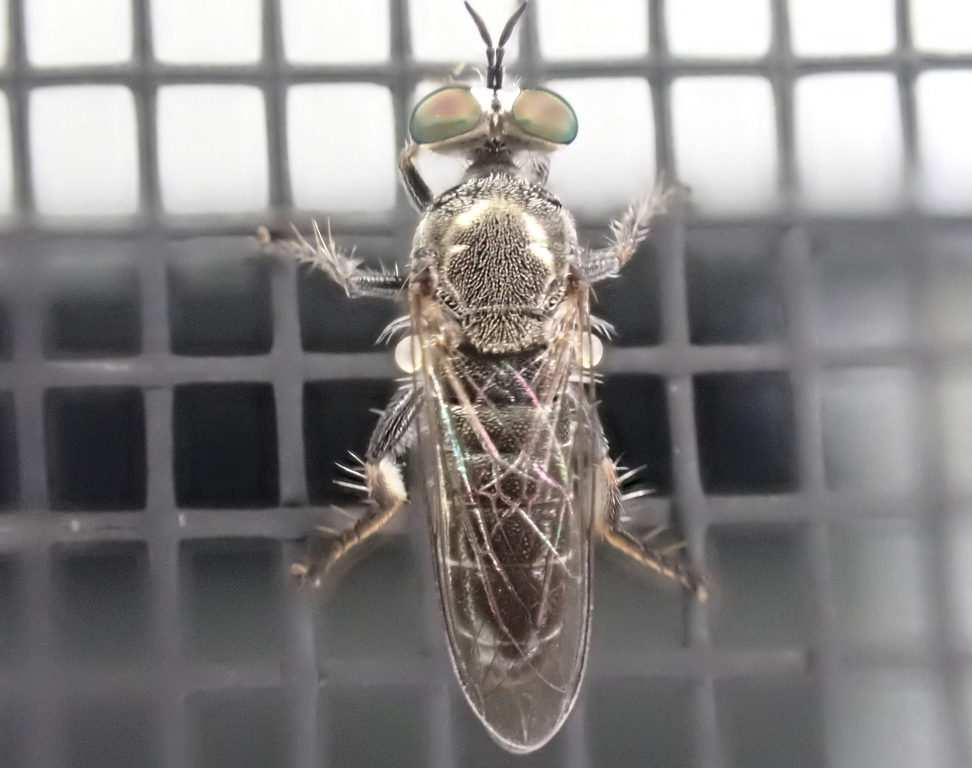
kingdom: Animalia
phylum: Arthropoda
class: Insecta
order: Diptera
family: Asilidae
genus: Atomosia
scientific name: Atomosia puella
